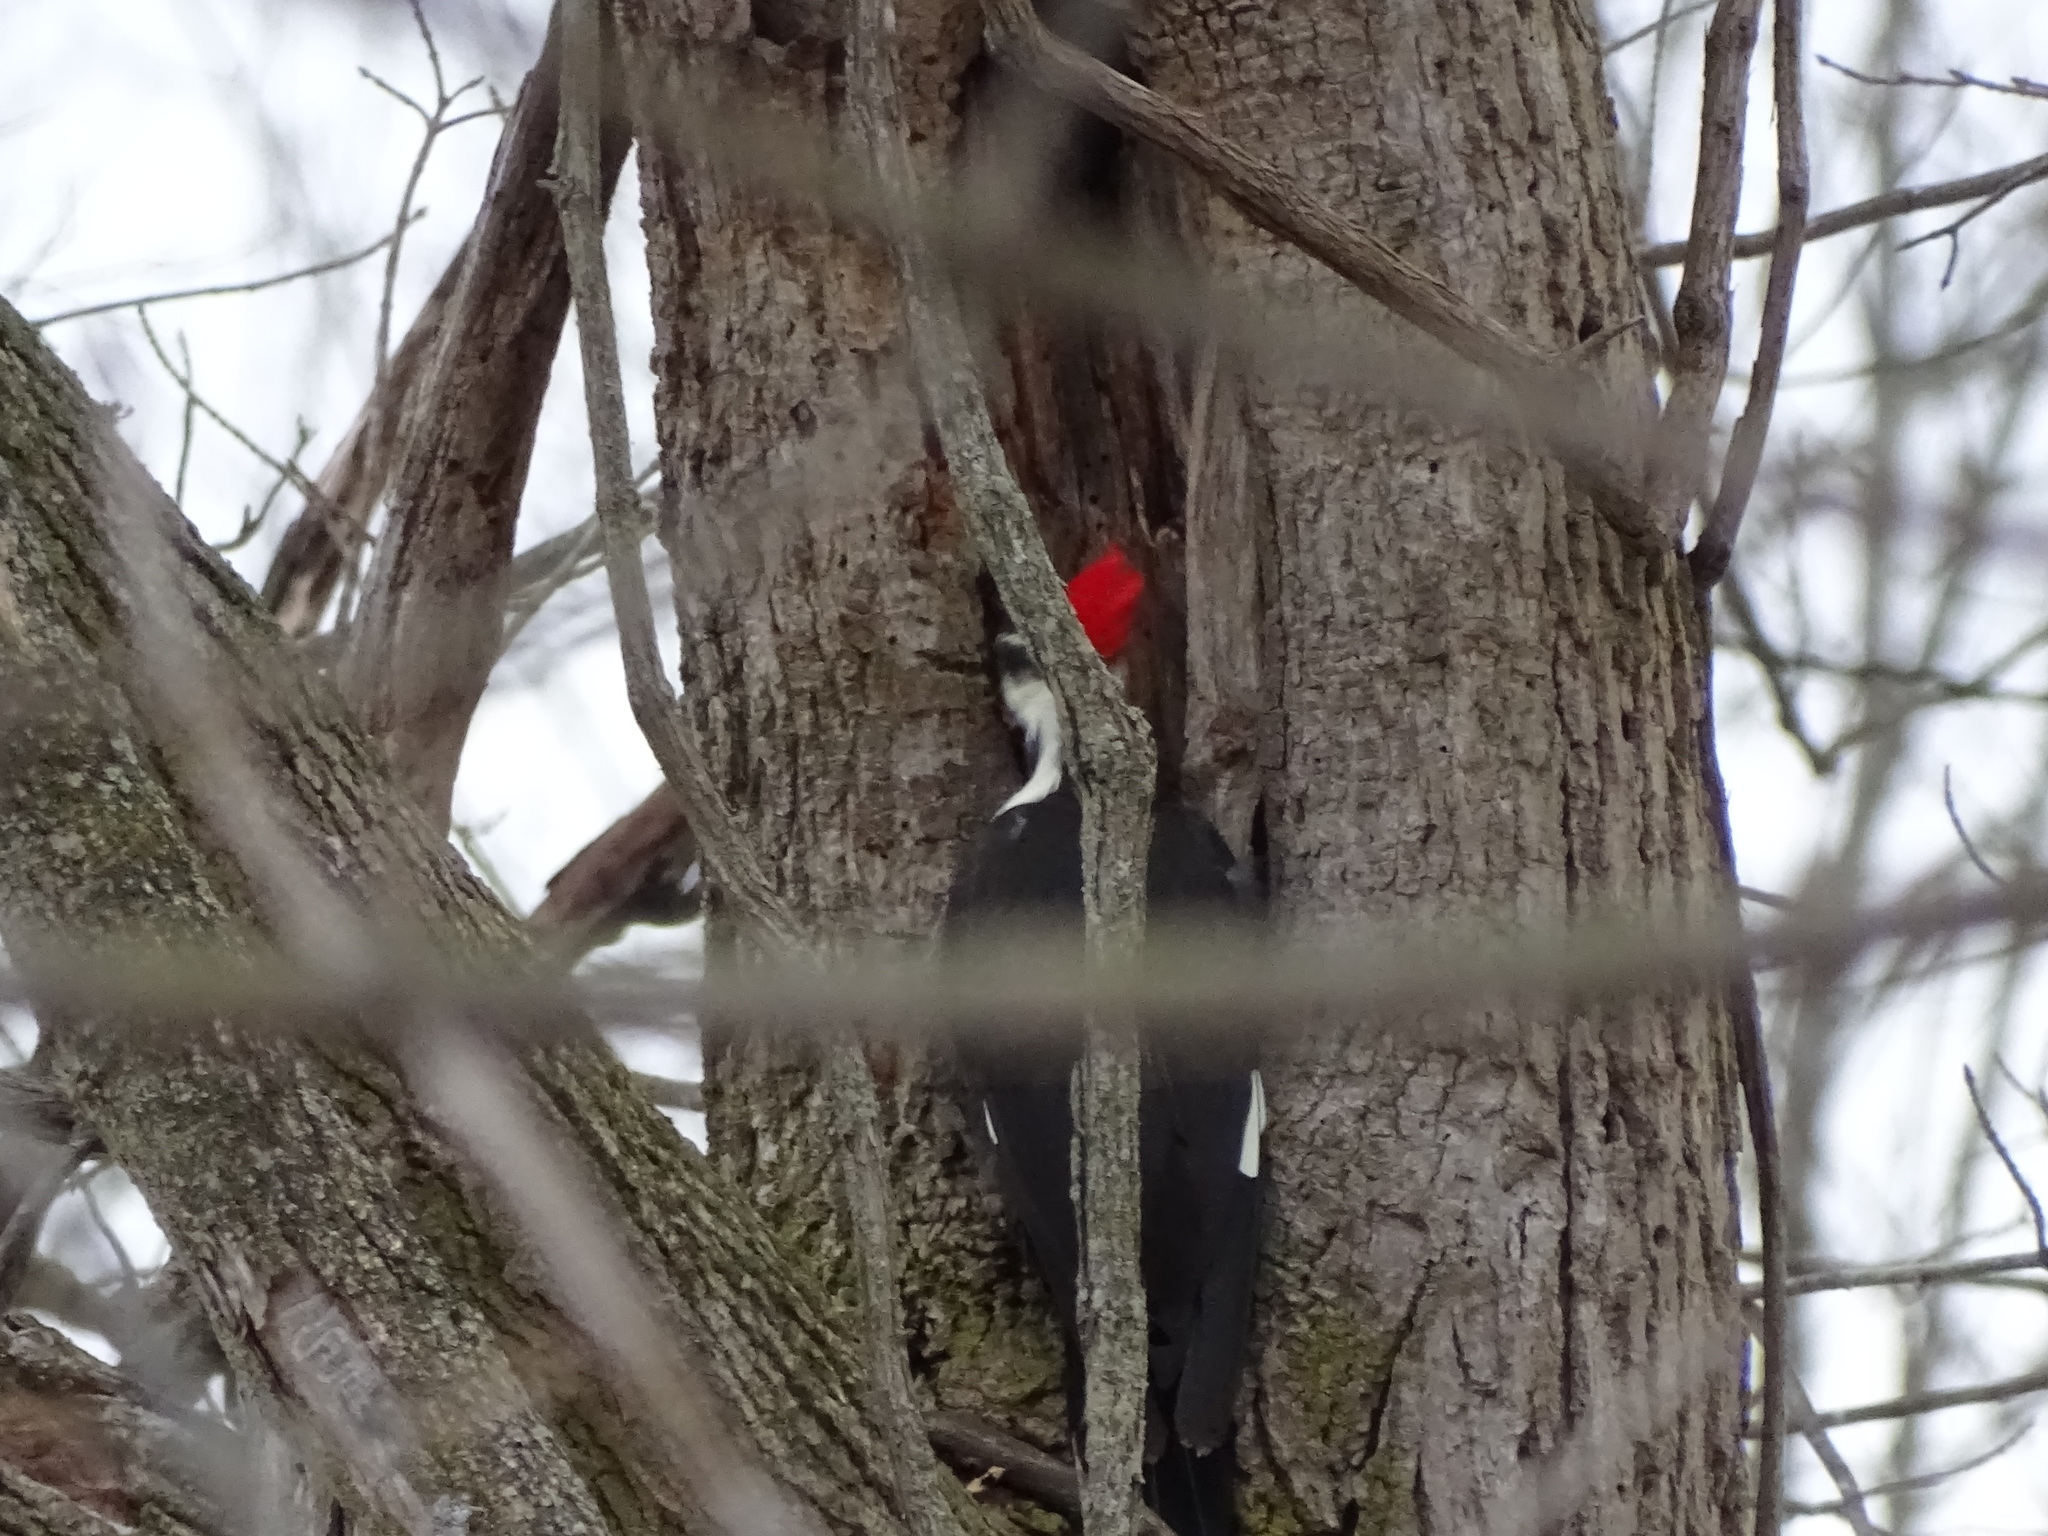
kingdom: Animalia
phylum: Chordata
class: Aves
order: Piciformes
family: Picidae
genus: Dryocopus
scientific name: Dryocopus pileatus
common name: Pileated woodpecker
